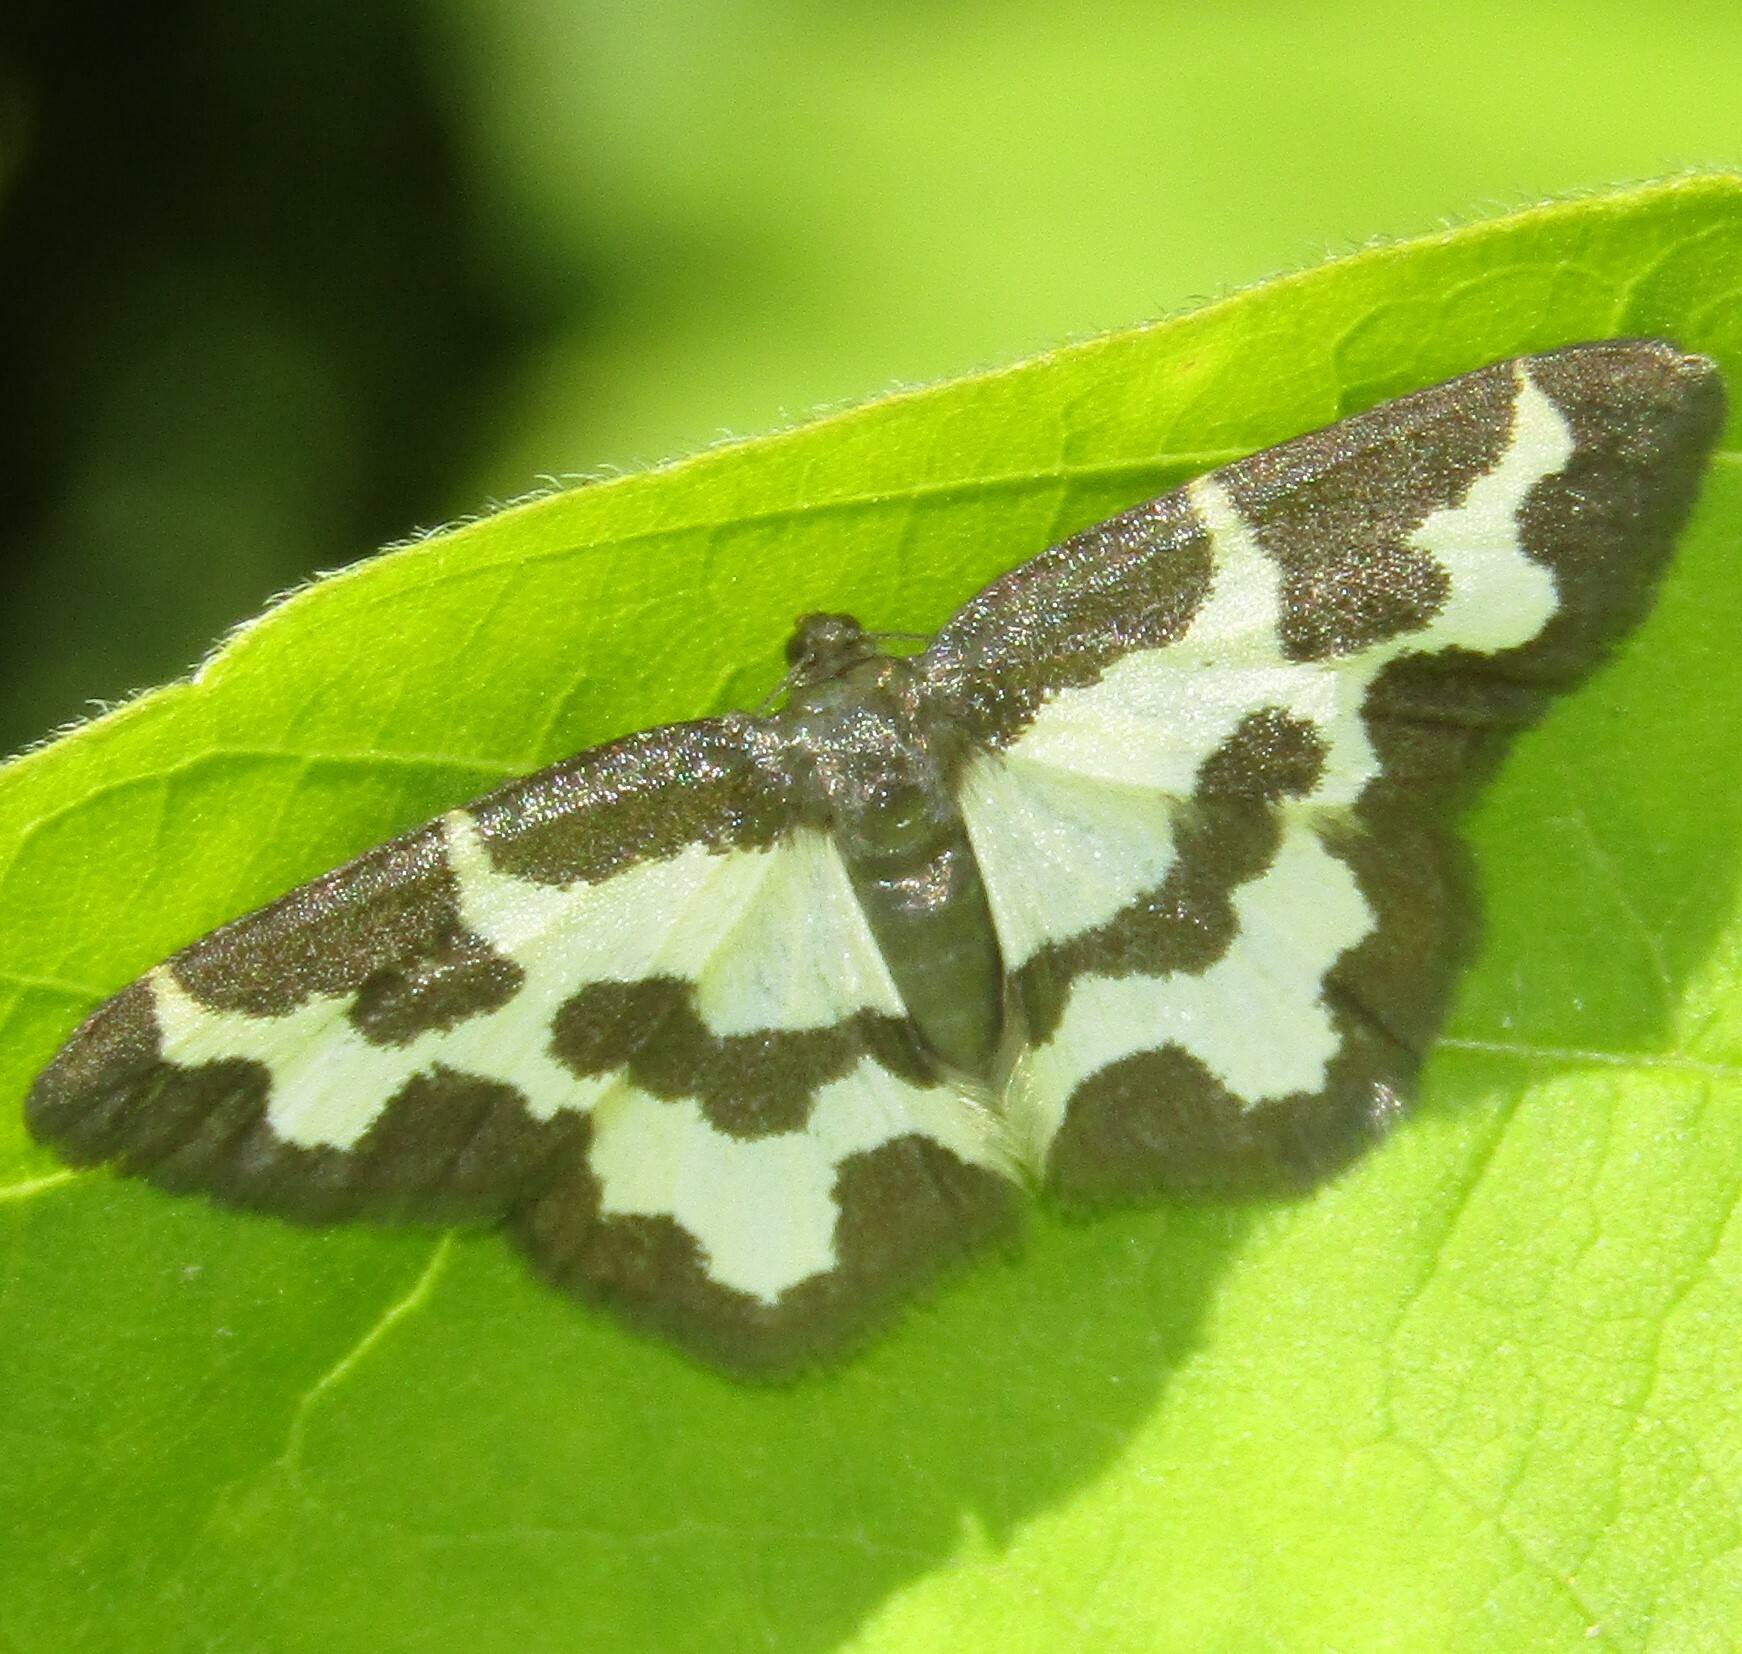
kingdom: Animalia
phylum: Arthropoda
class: Insecta
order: Lepidoptera
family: Geometridae
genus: Lomaspilis
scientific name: Lomaspilis marginata
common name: Clouded border
